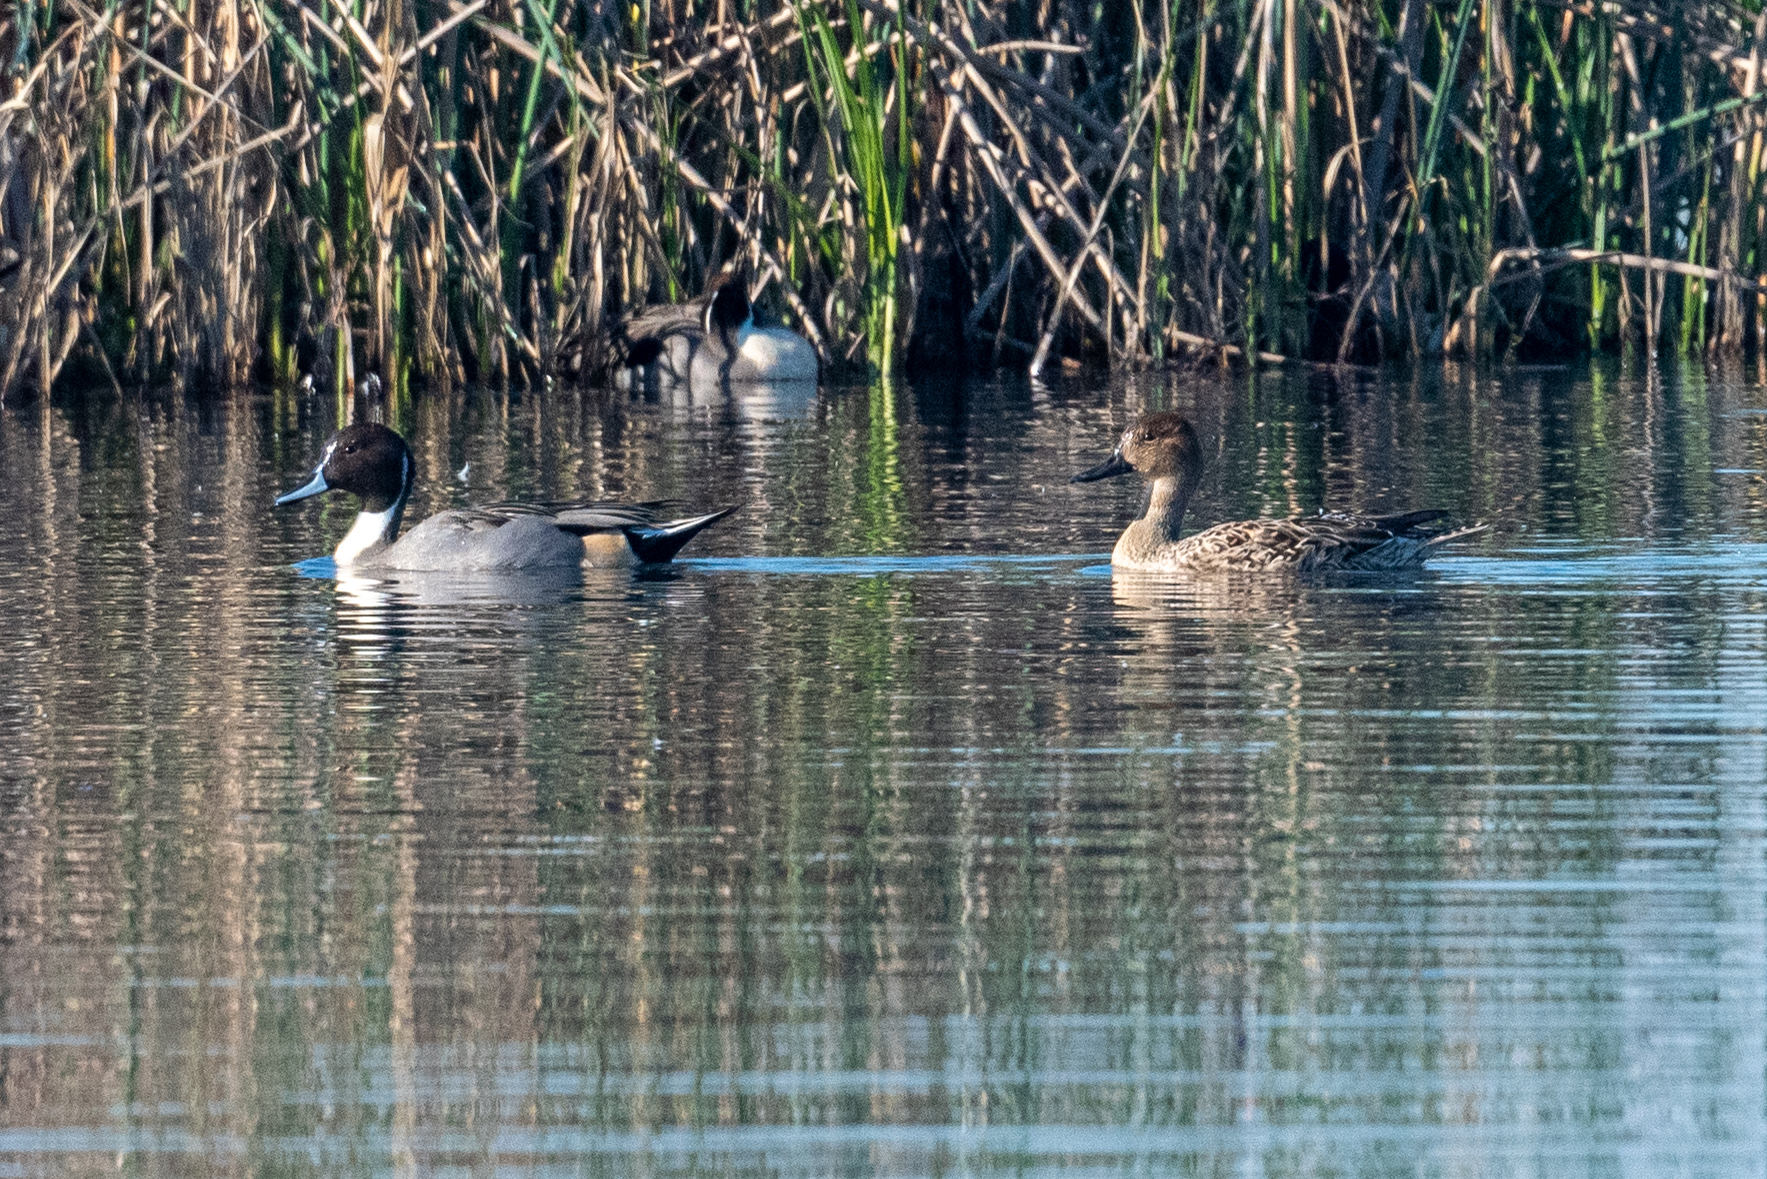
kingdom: Animalia
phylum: Chordata
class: Aves
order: Anseriformes
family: Anatidae
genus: Anas
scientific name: Anas acuta
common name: Northern pintail
